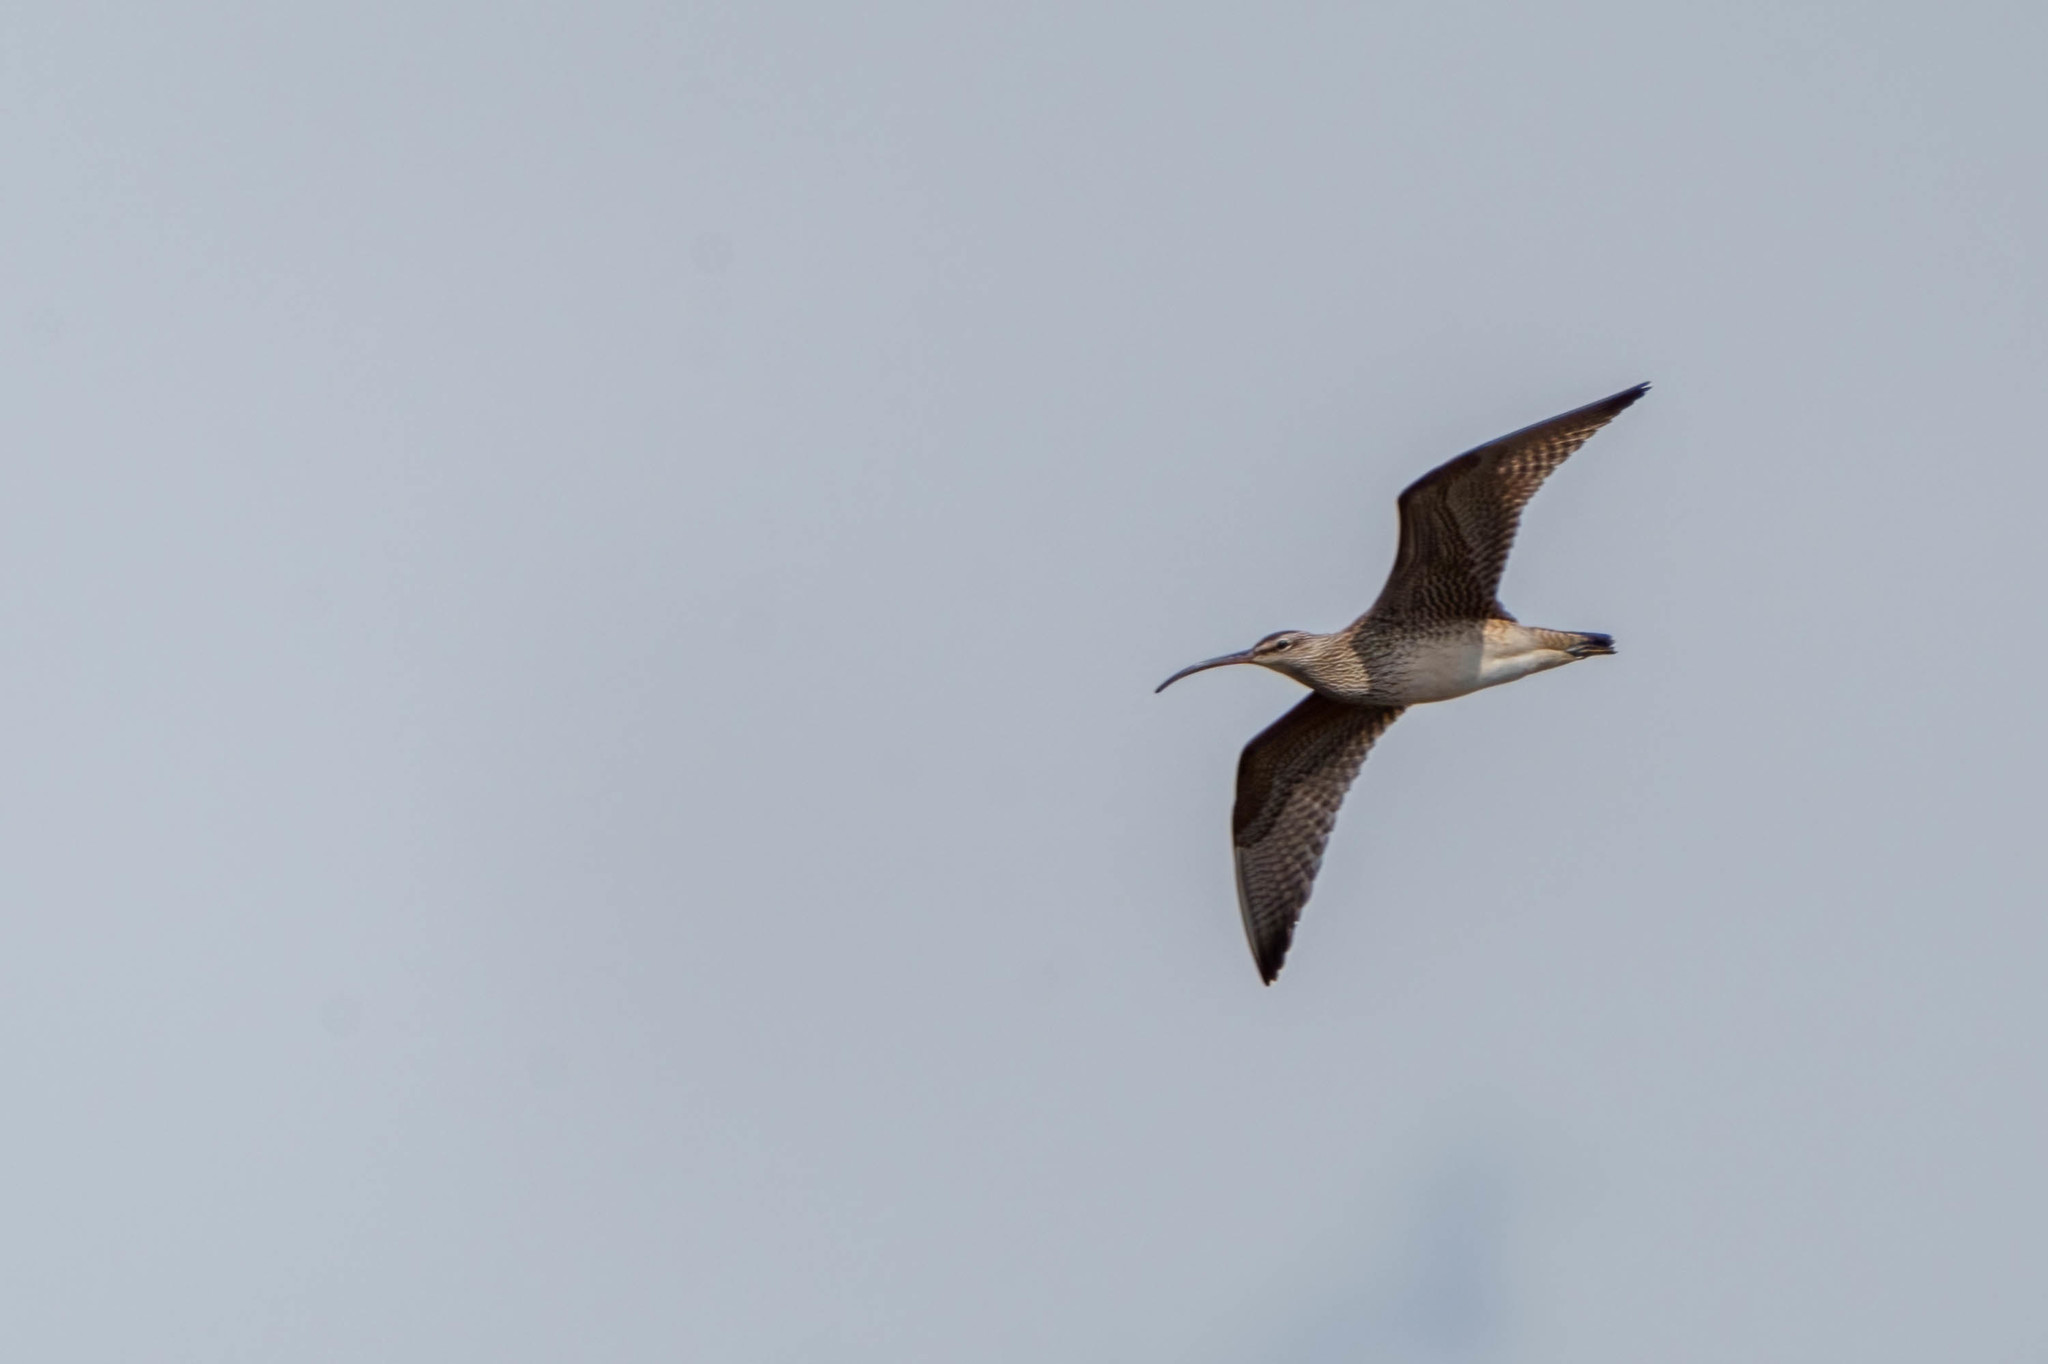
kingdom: Animalia
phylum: Chordata
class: Aves
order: Charadriiformes
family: Scolopacidae
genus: Numenius
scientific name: Numenius phaeopus
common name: Whimbrel
